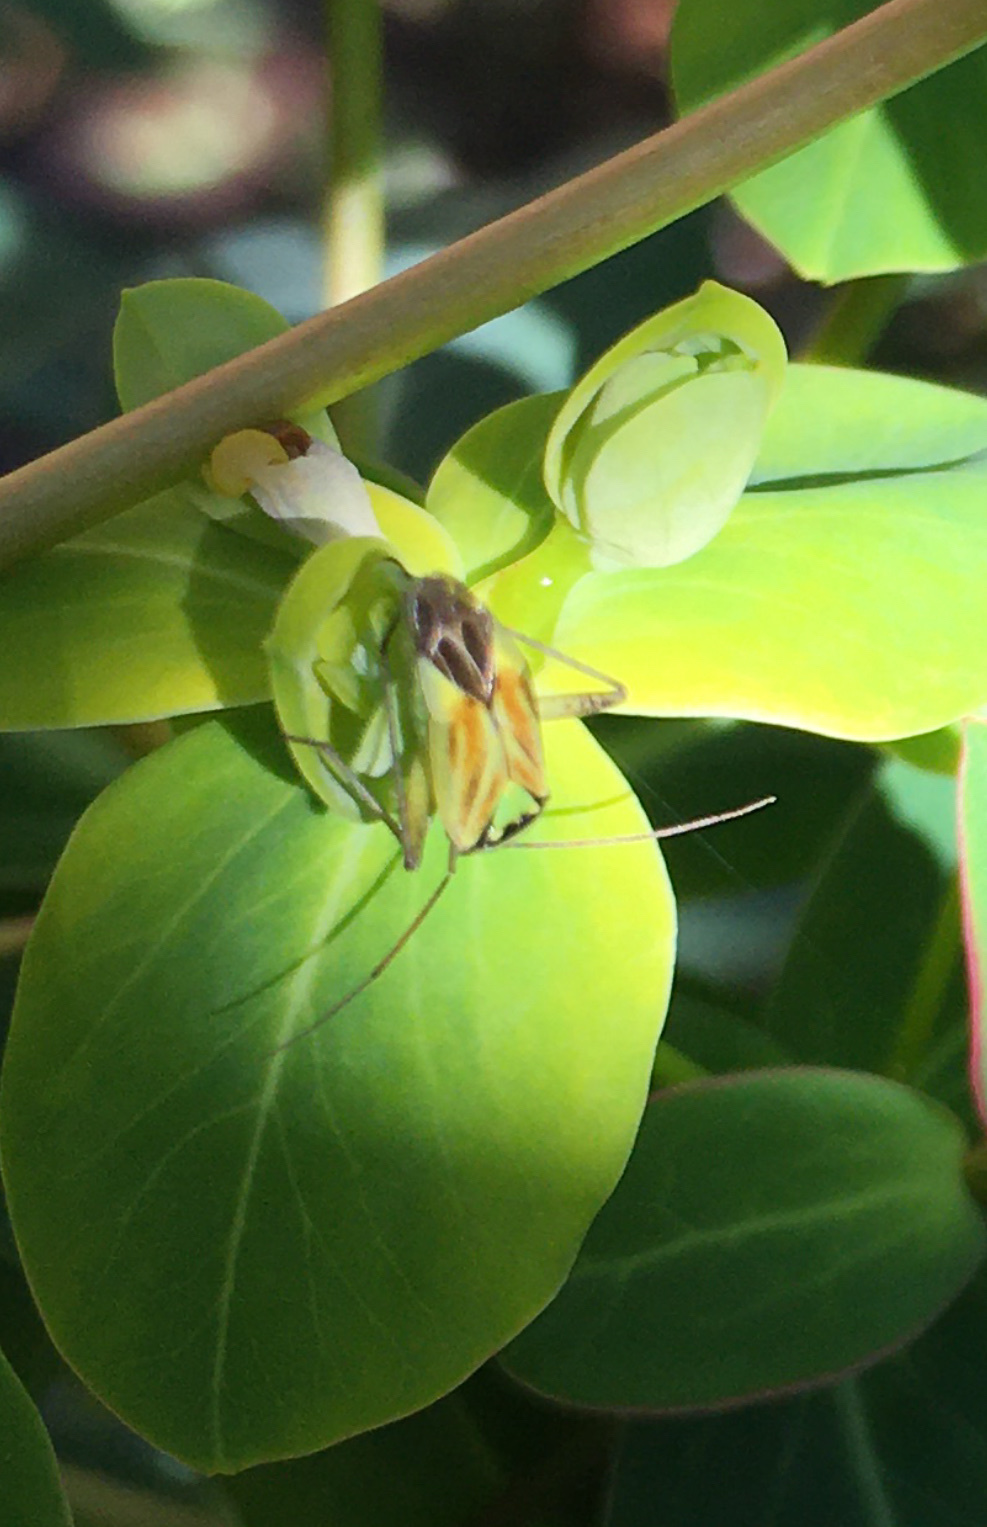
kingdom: Animalia
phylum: Arthropoda
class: Insecta
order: Hemiptera
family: Miridae
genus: Closterotomus
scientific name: Closterotomus norvegicus
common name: Plant bug
